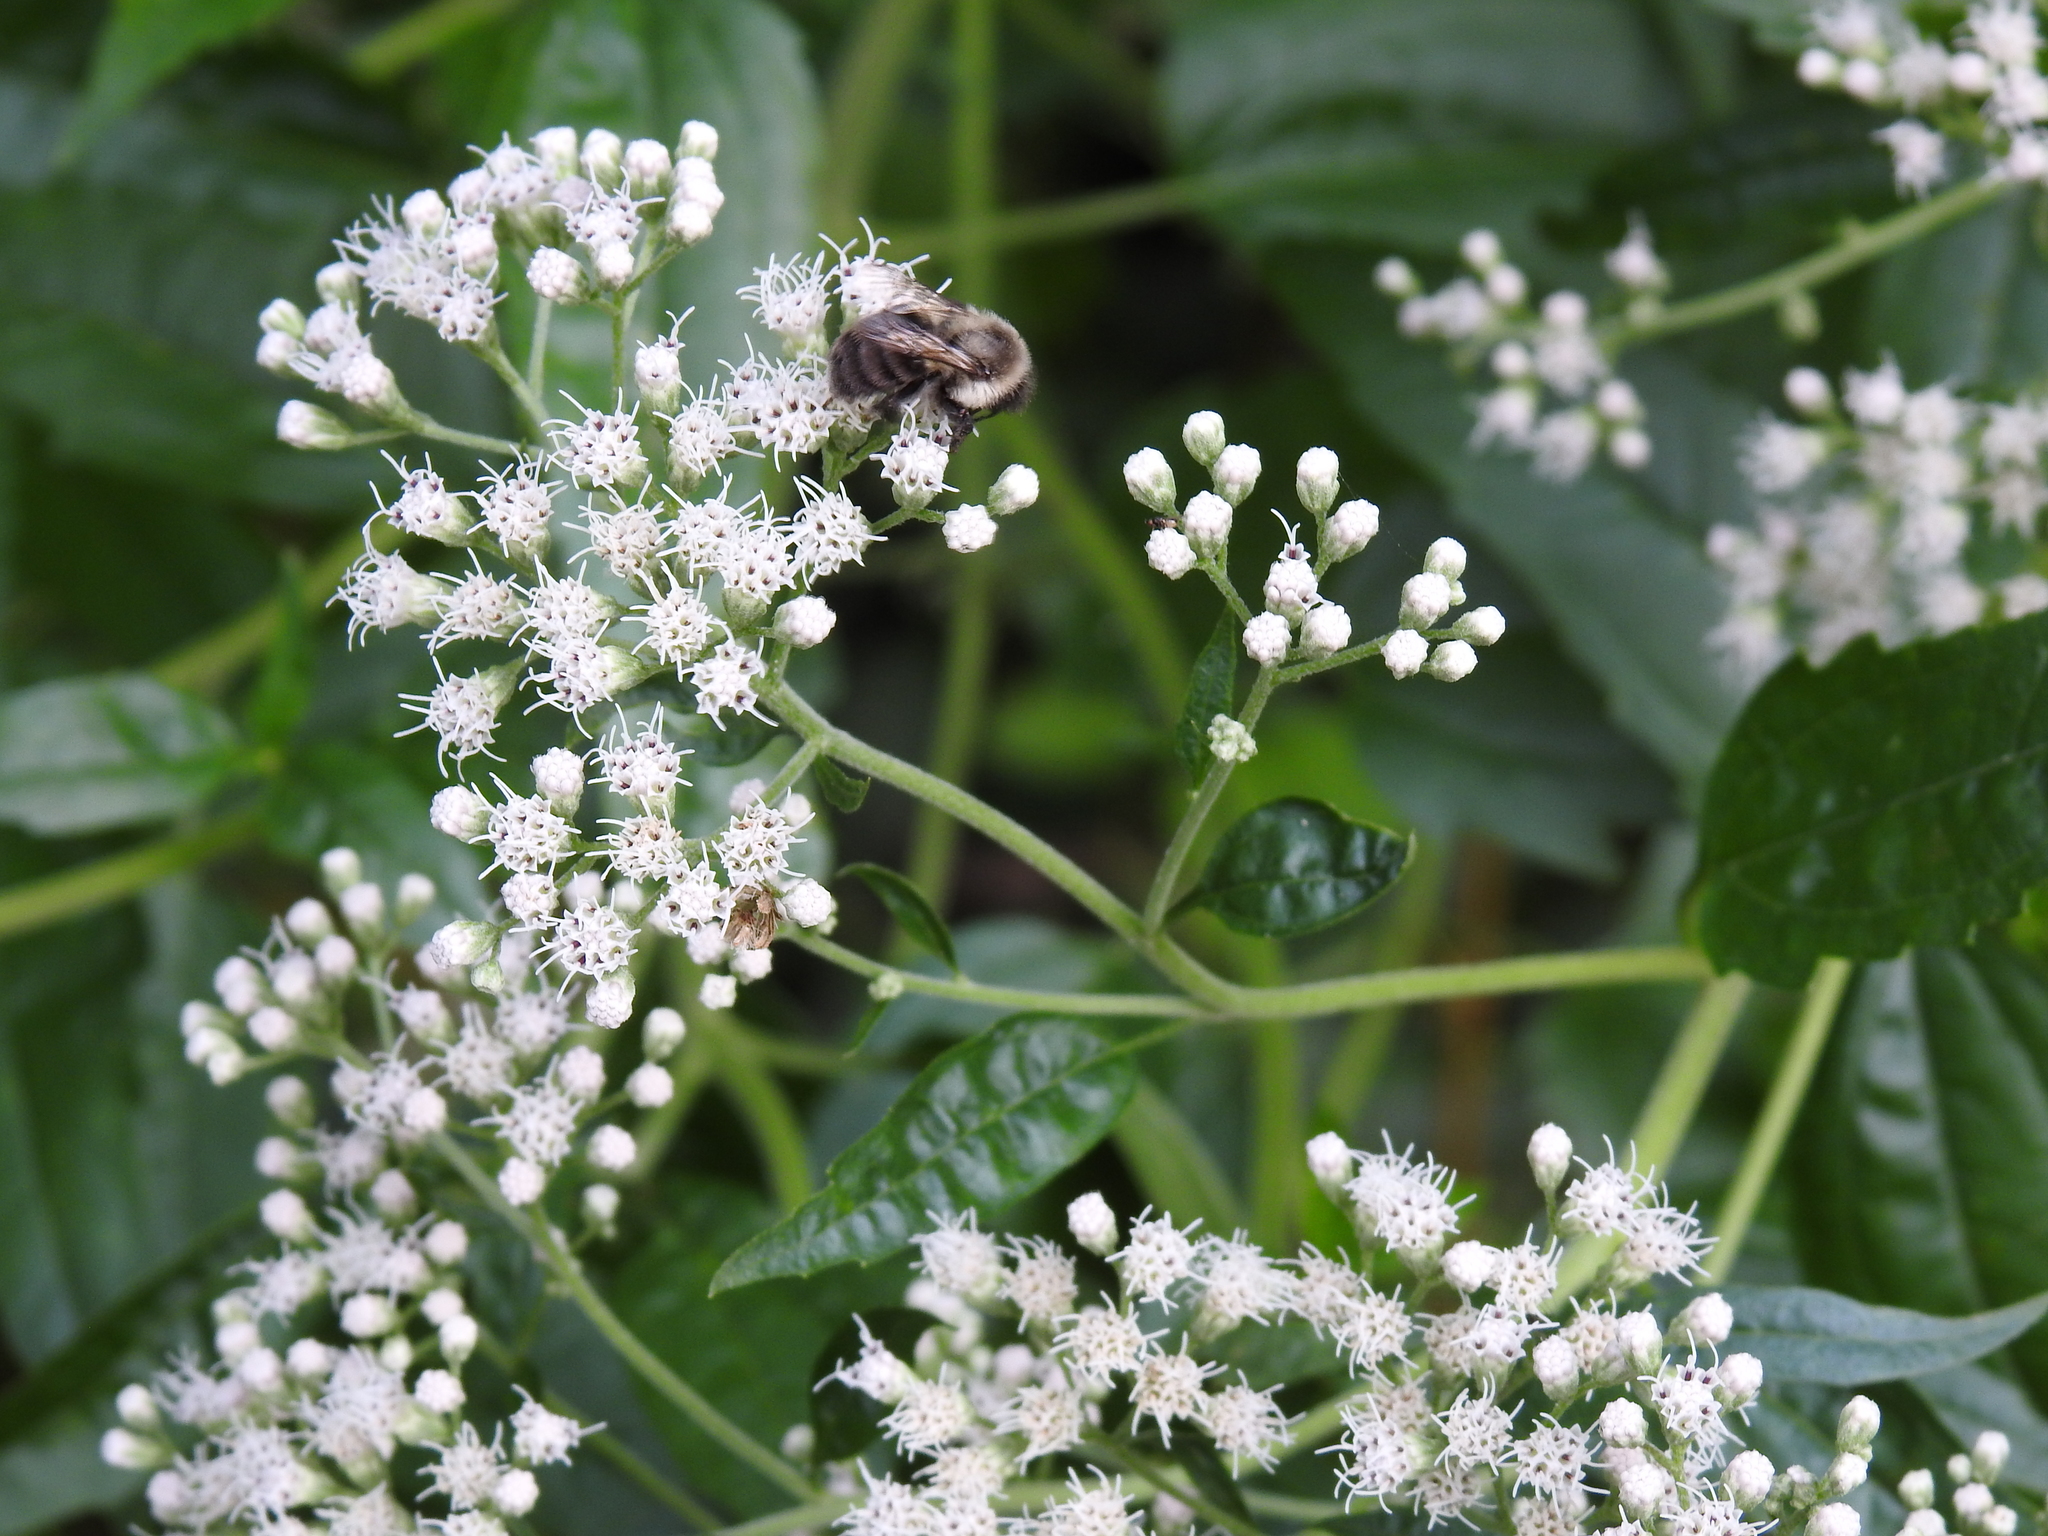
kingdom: Animalia
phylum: Arthropoda
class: Insecta
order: Hymenoptera
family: Apidae
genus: Bombus
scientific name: Bombus impatiens
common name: Common eastern bumble bee
